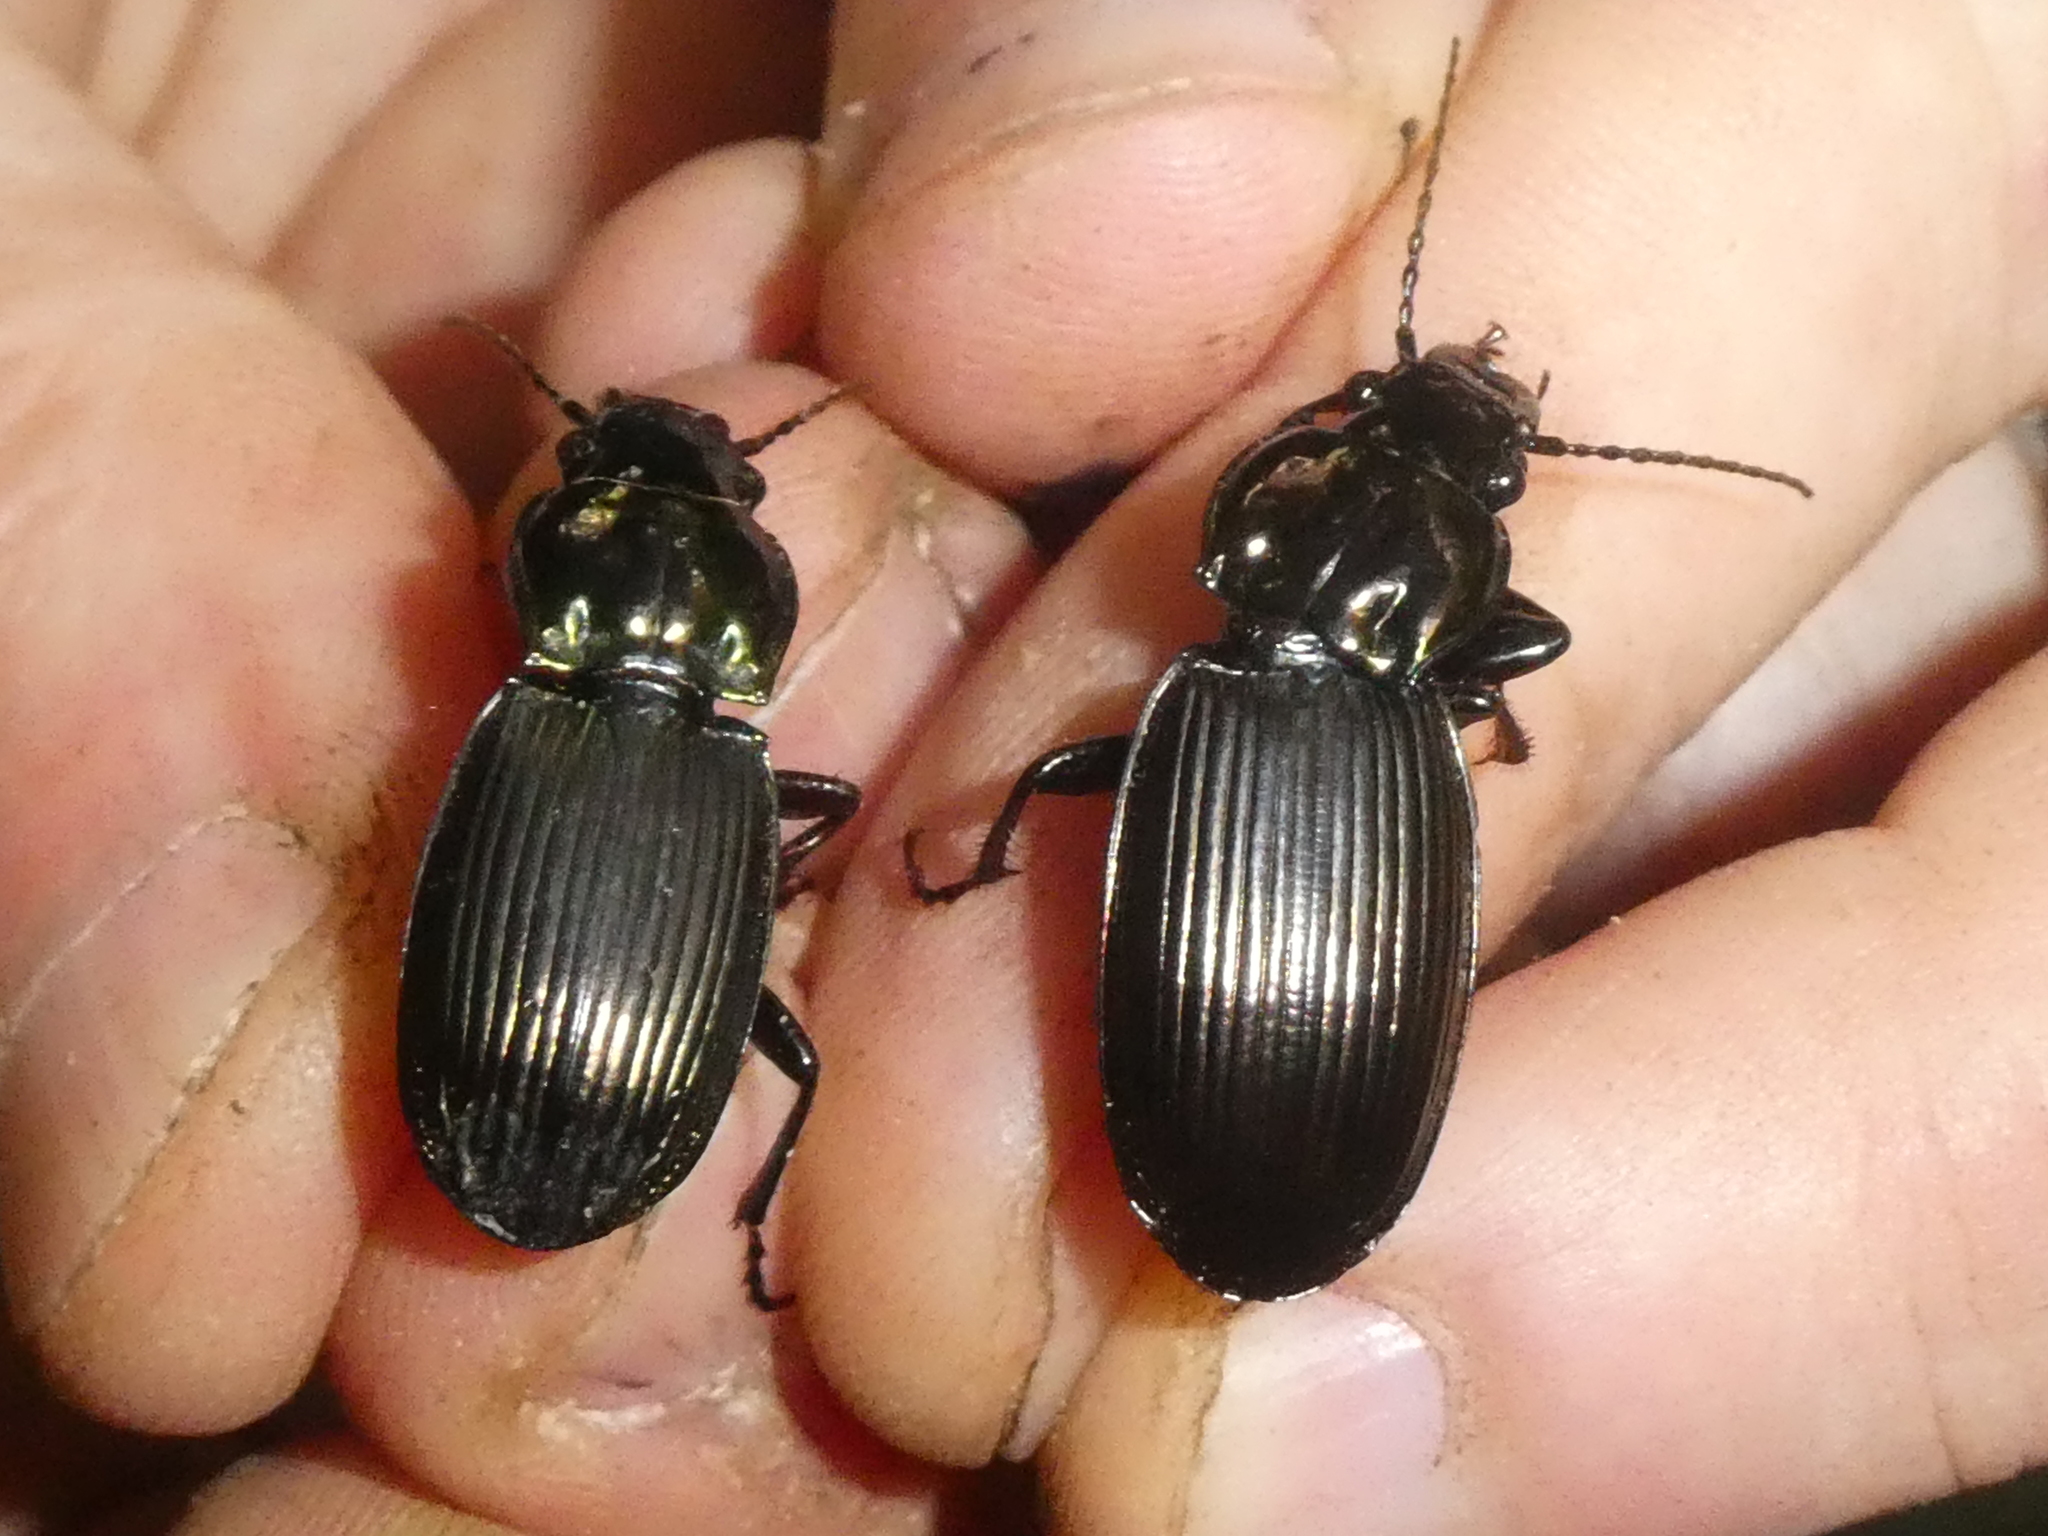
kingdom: Animalia
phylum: Arthropoda
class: Insecta
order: Coleoptera
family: Carabidae
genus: Megadromus
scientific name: Megadromus bucolicus
